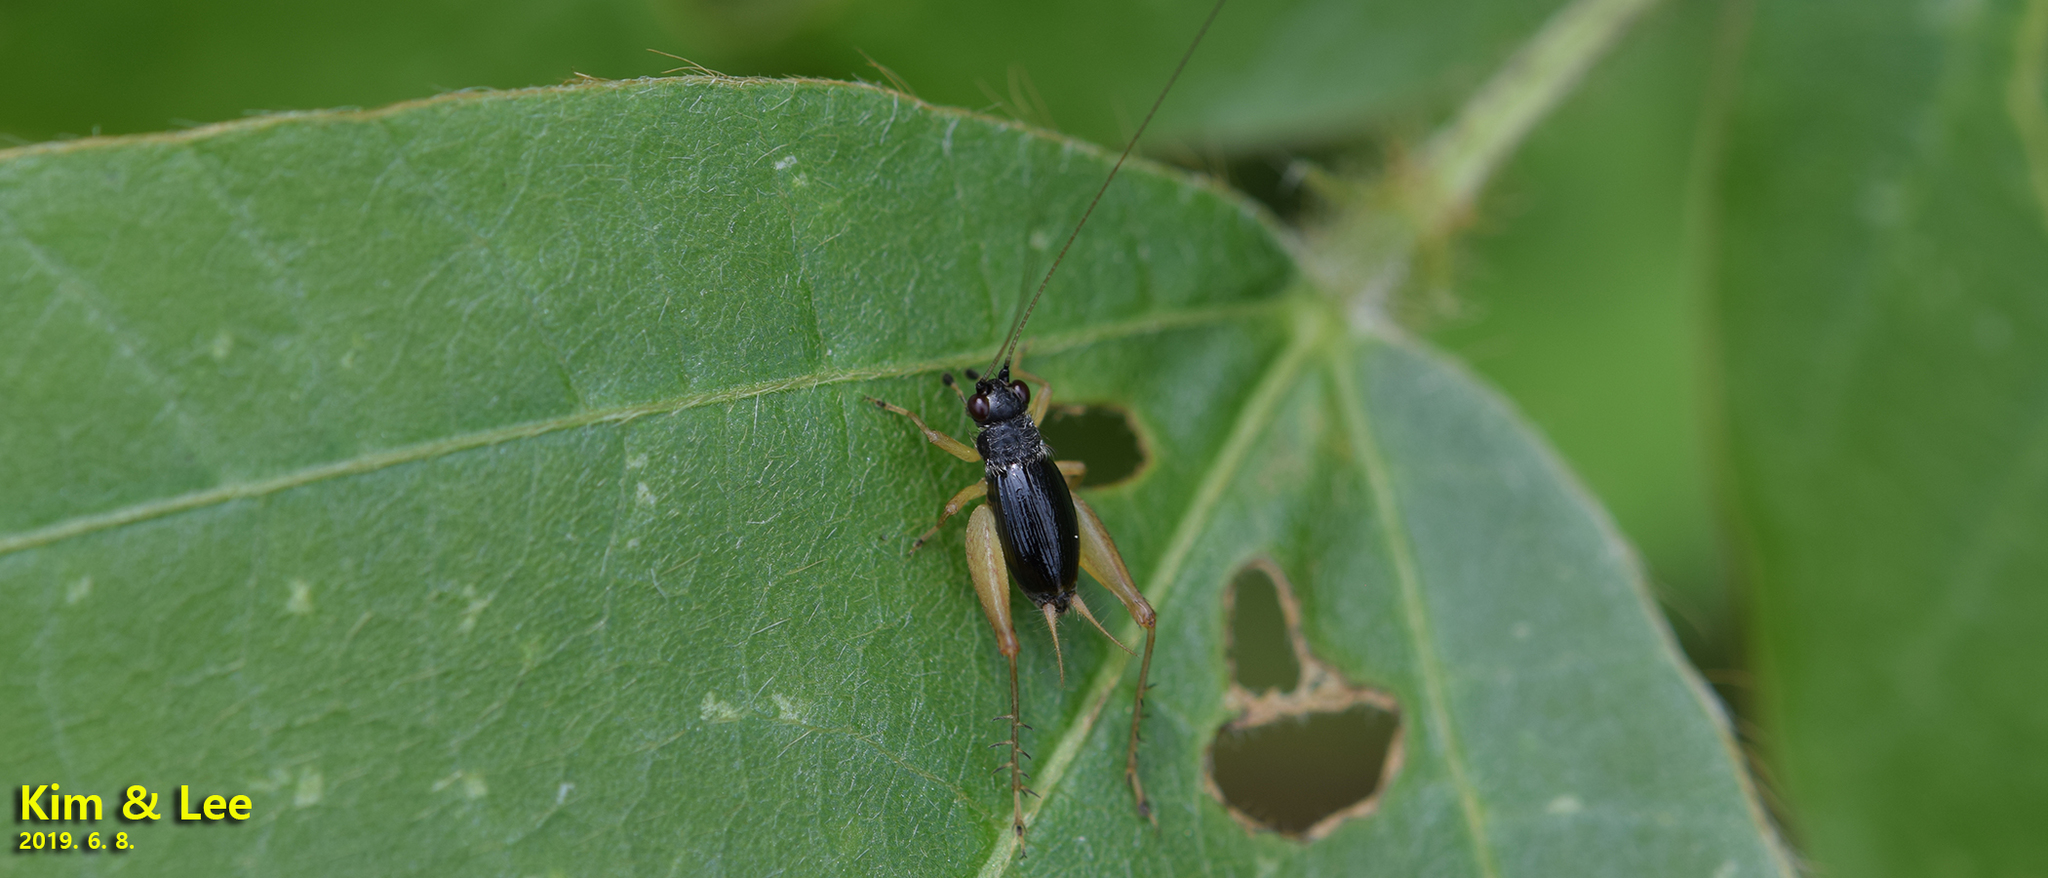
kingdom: Animalia
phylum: Arthropoda
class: Insecta
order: Orthoptera
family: Trigonidiidae
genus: Trigonidium
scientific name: Trigonidium japonicum
